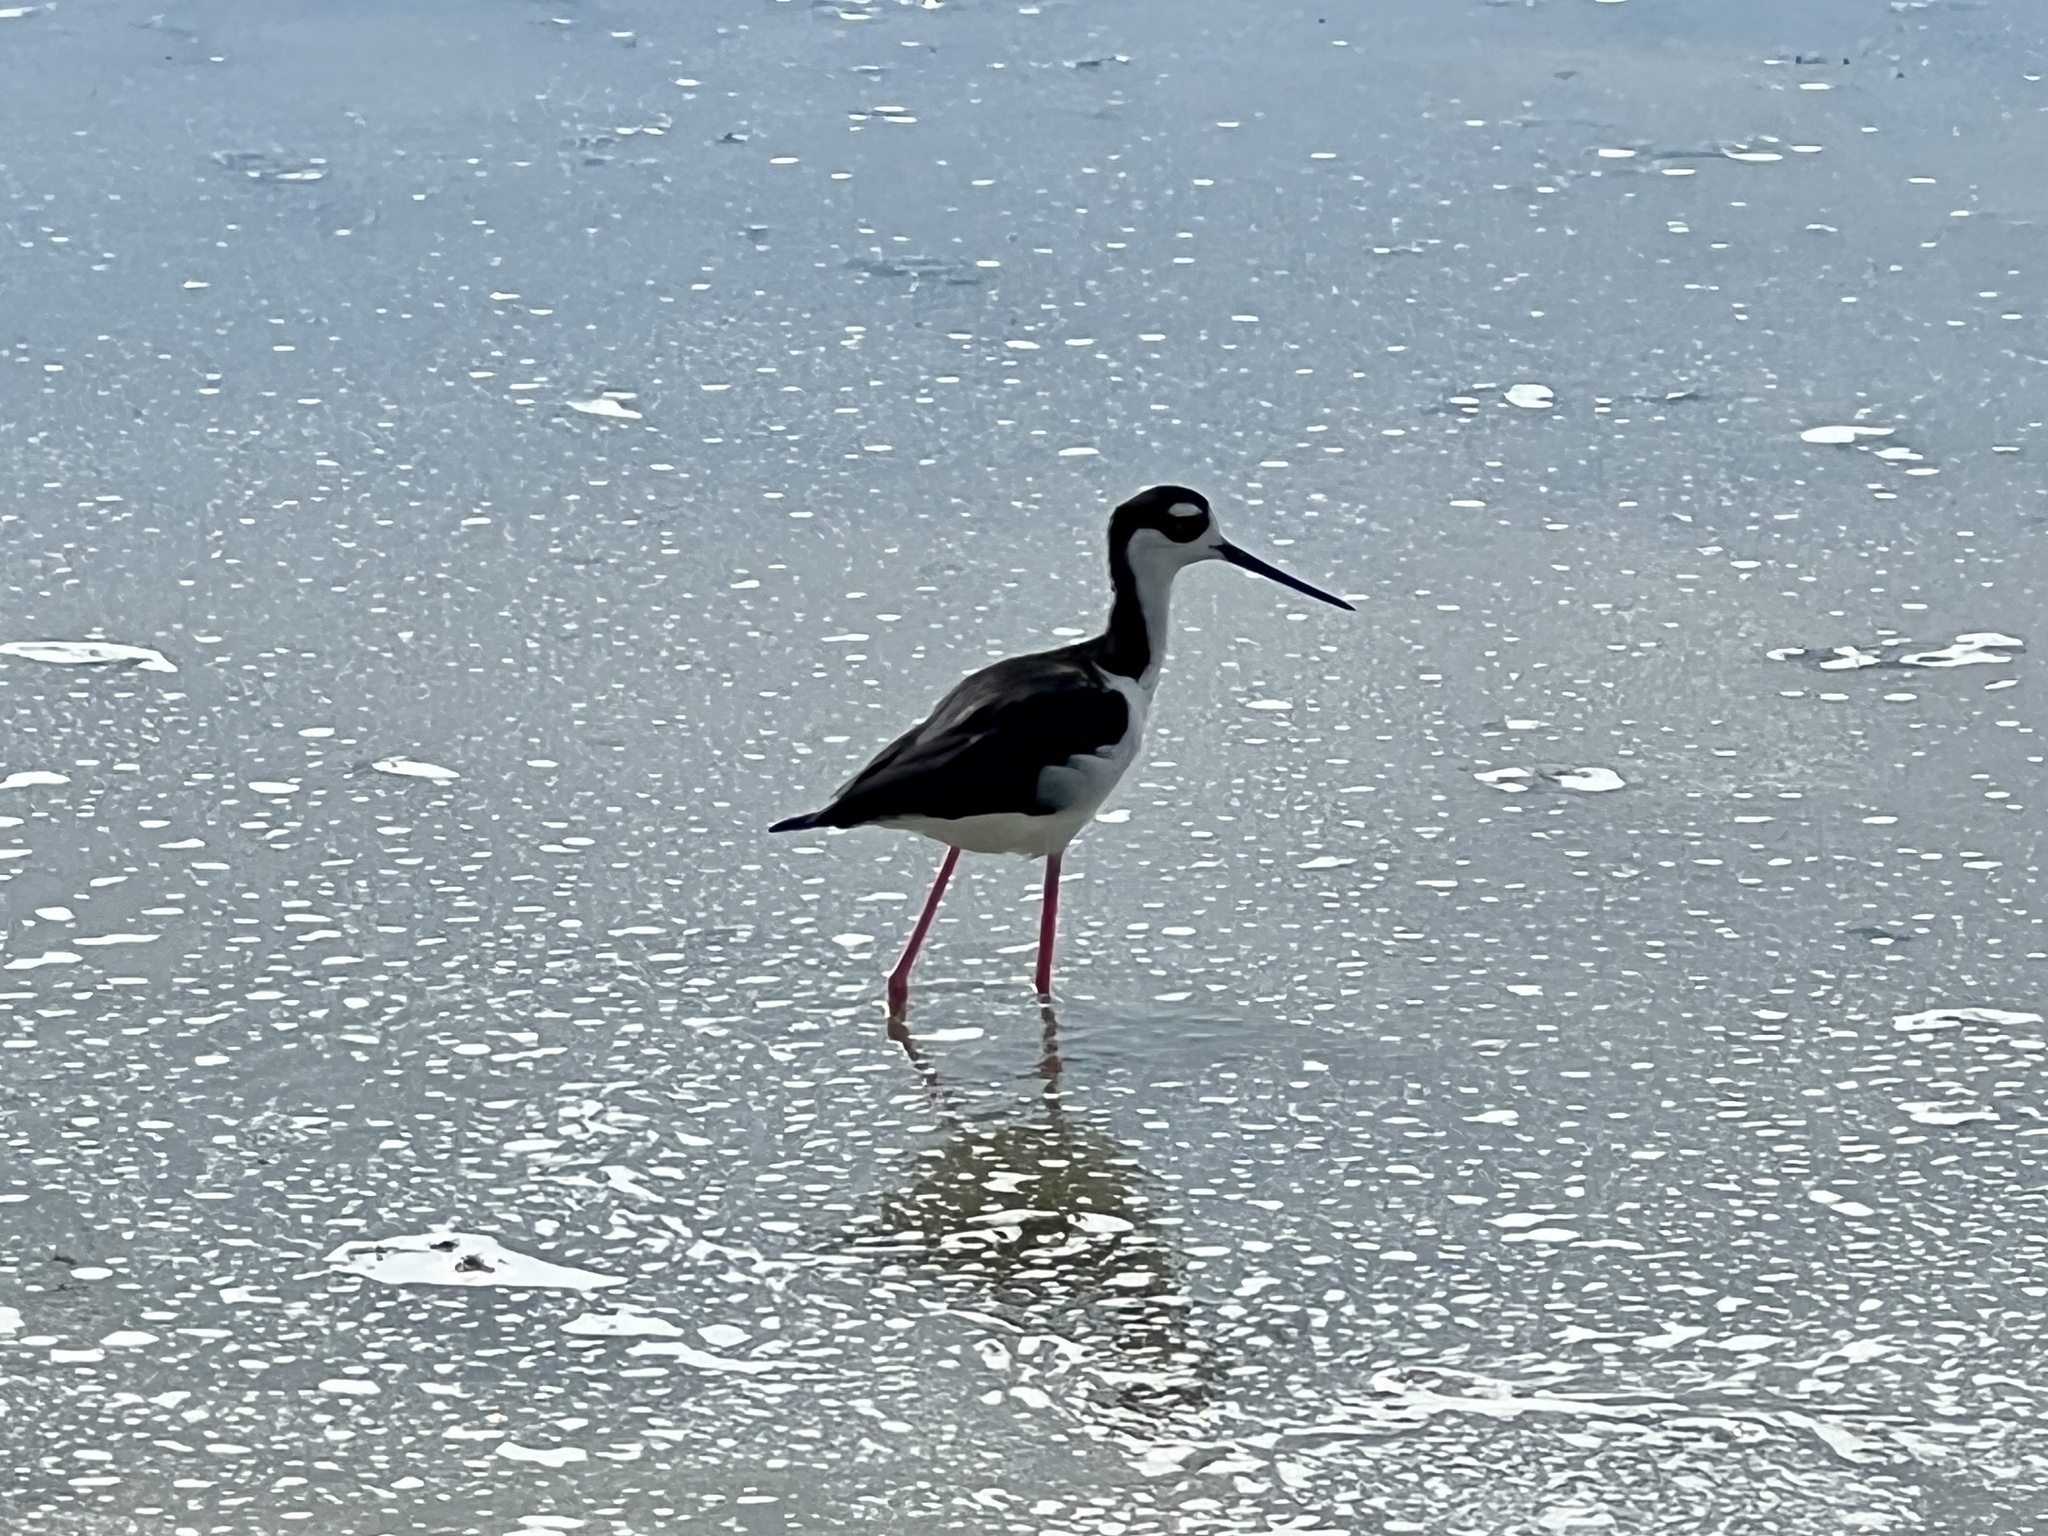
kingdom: Animalia
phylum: Chordata
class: Aves
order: Charadriiformes
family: Recurvirostridae
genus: Himantopus
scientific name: Himantopus mexicanus
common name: Black-necked stilt
